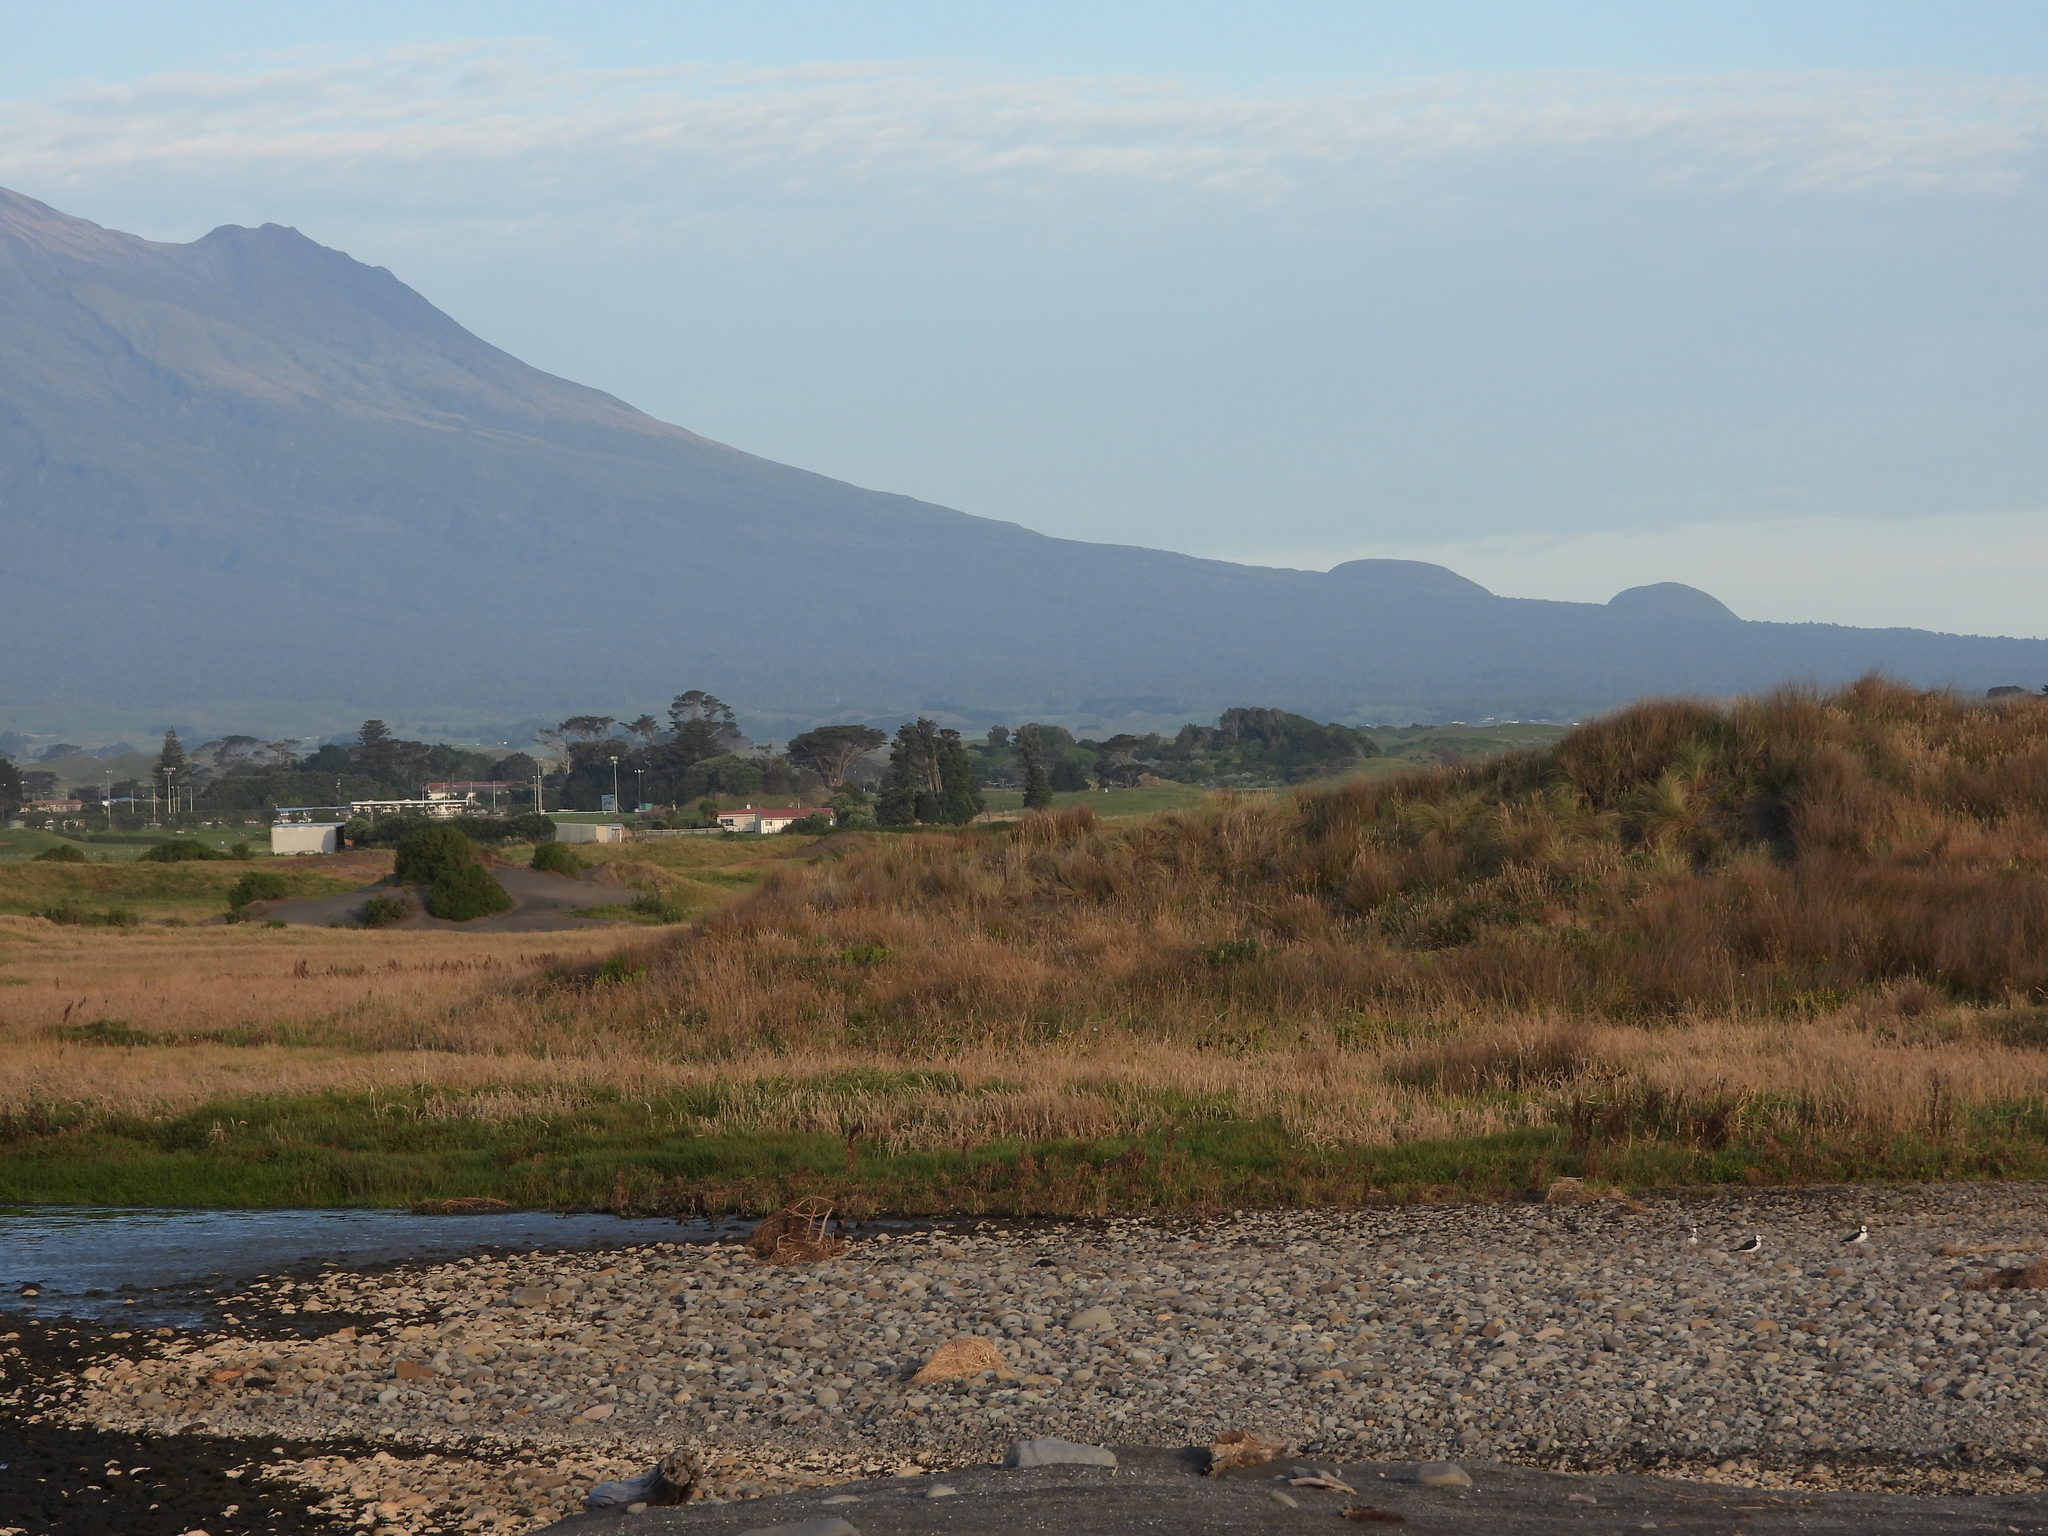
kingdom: Animalia
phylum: Chordata
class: Aves
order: Charadriiformes
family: Recurvirostridae
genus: Himantopus
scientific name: Himantopus leucocephalus
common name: White-headed stilt
